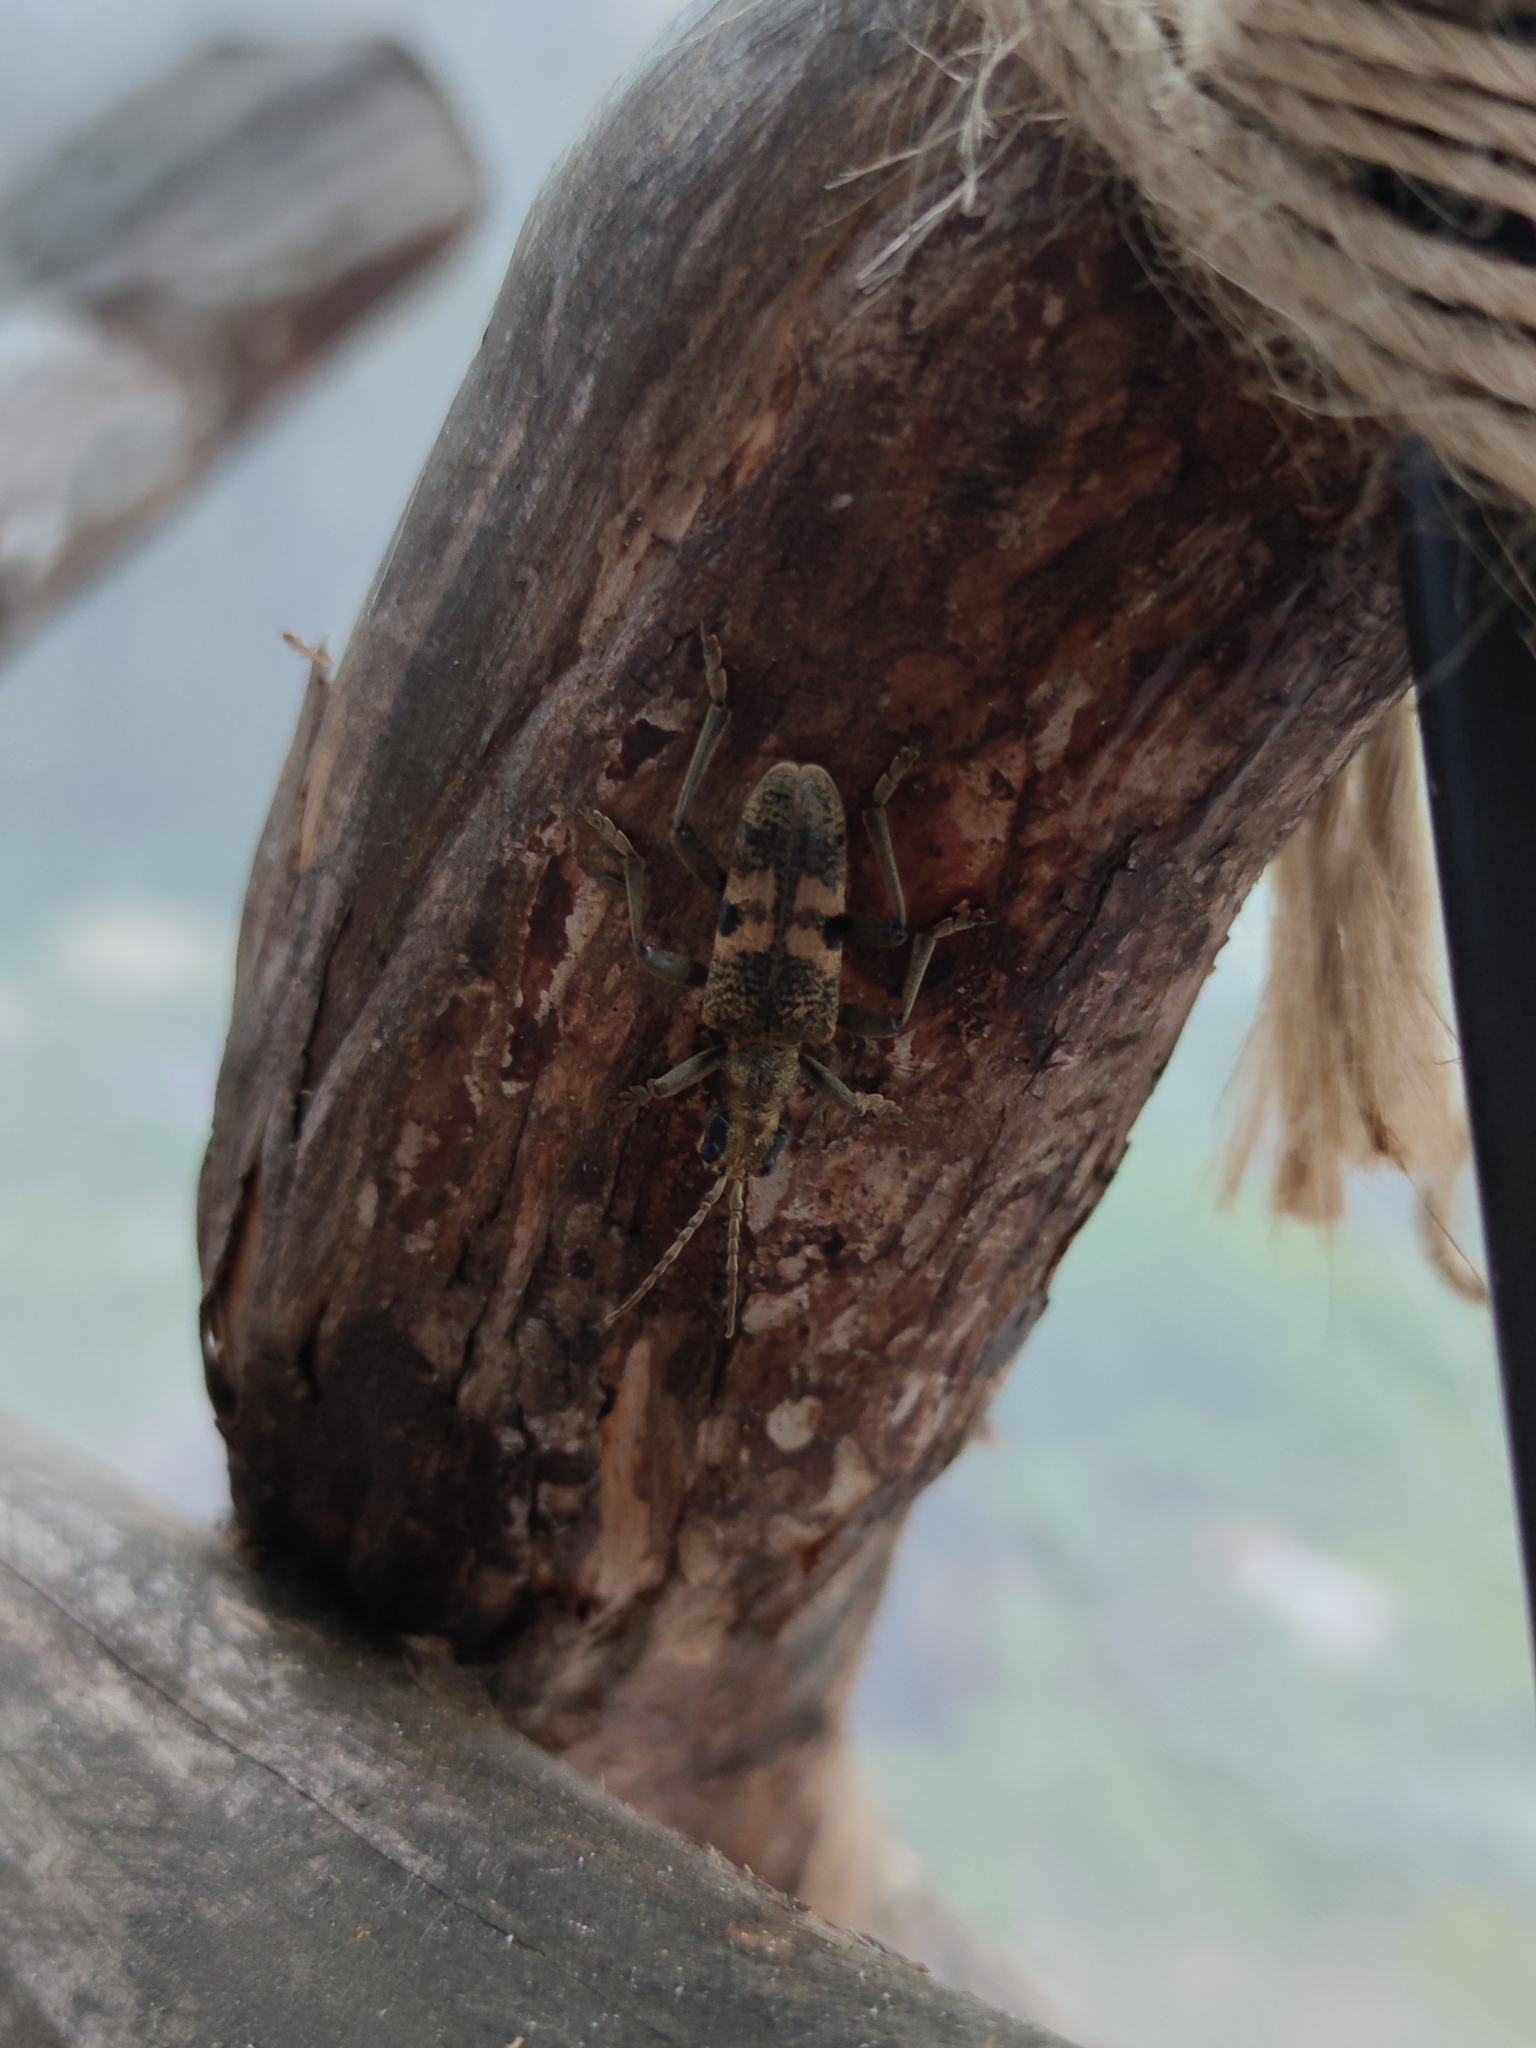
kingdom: Animalia
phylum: Arthropoda
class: Insecta
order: Coleoptera
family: Cerambycidae
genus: Rhagium
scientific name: Rhagium mordax
